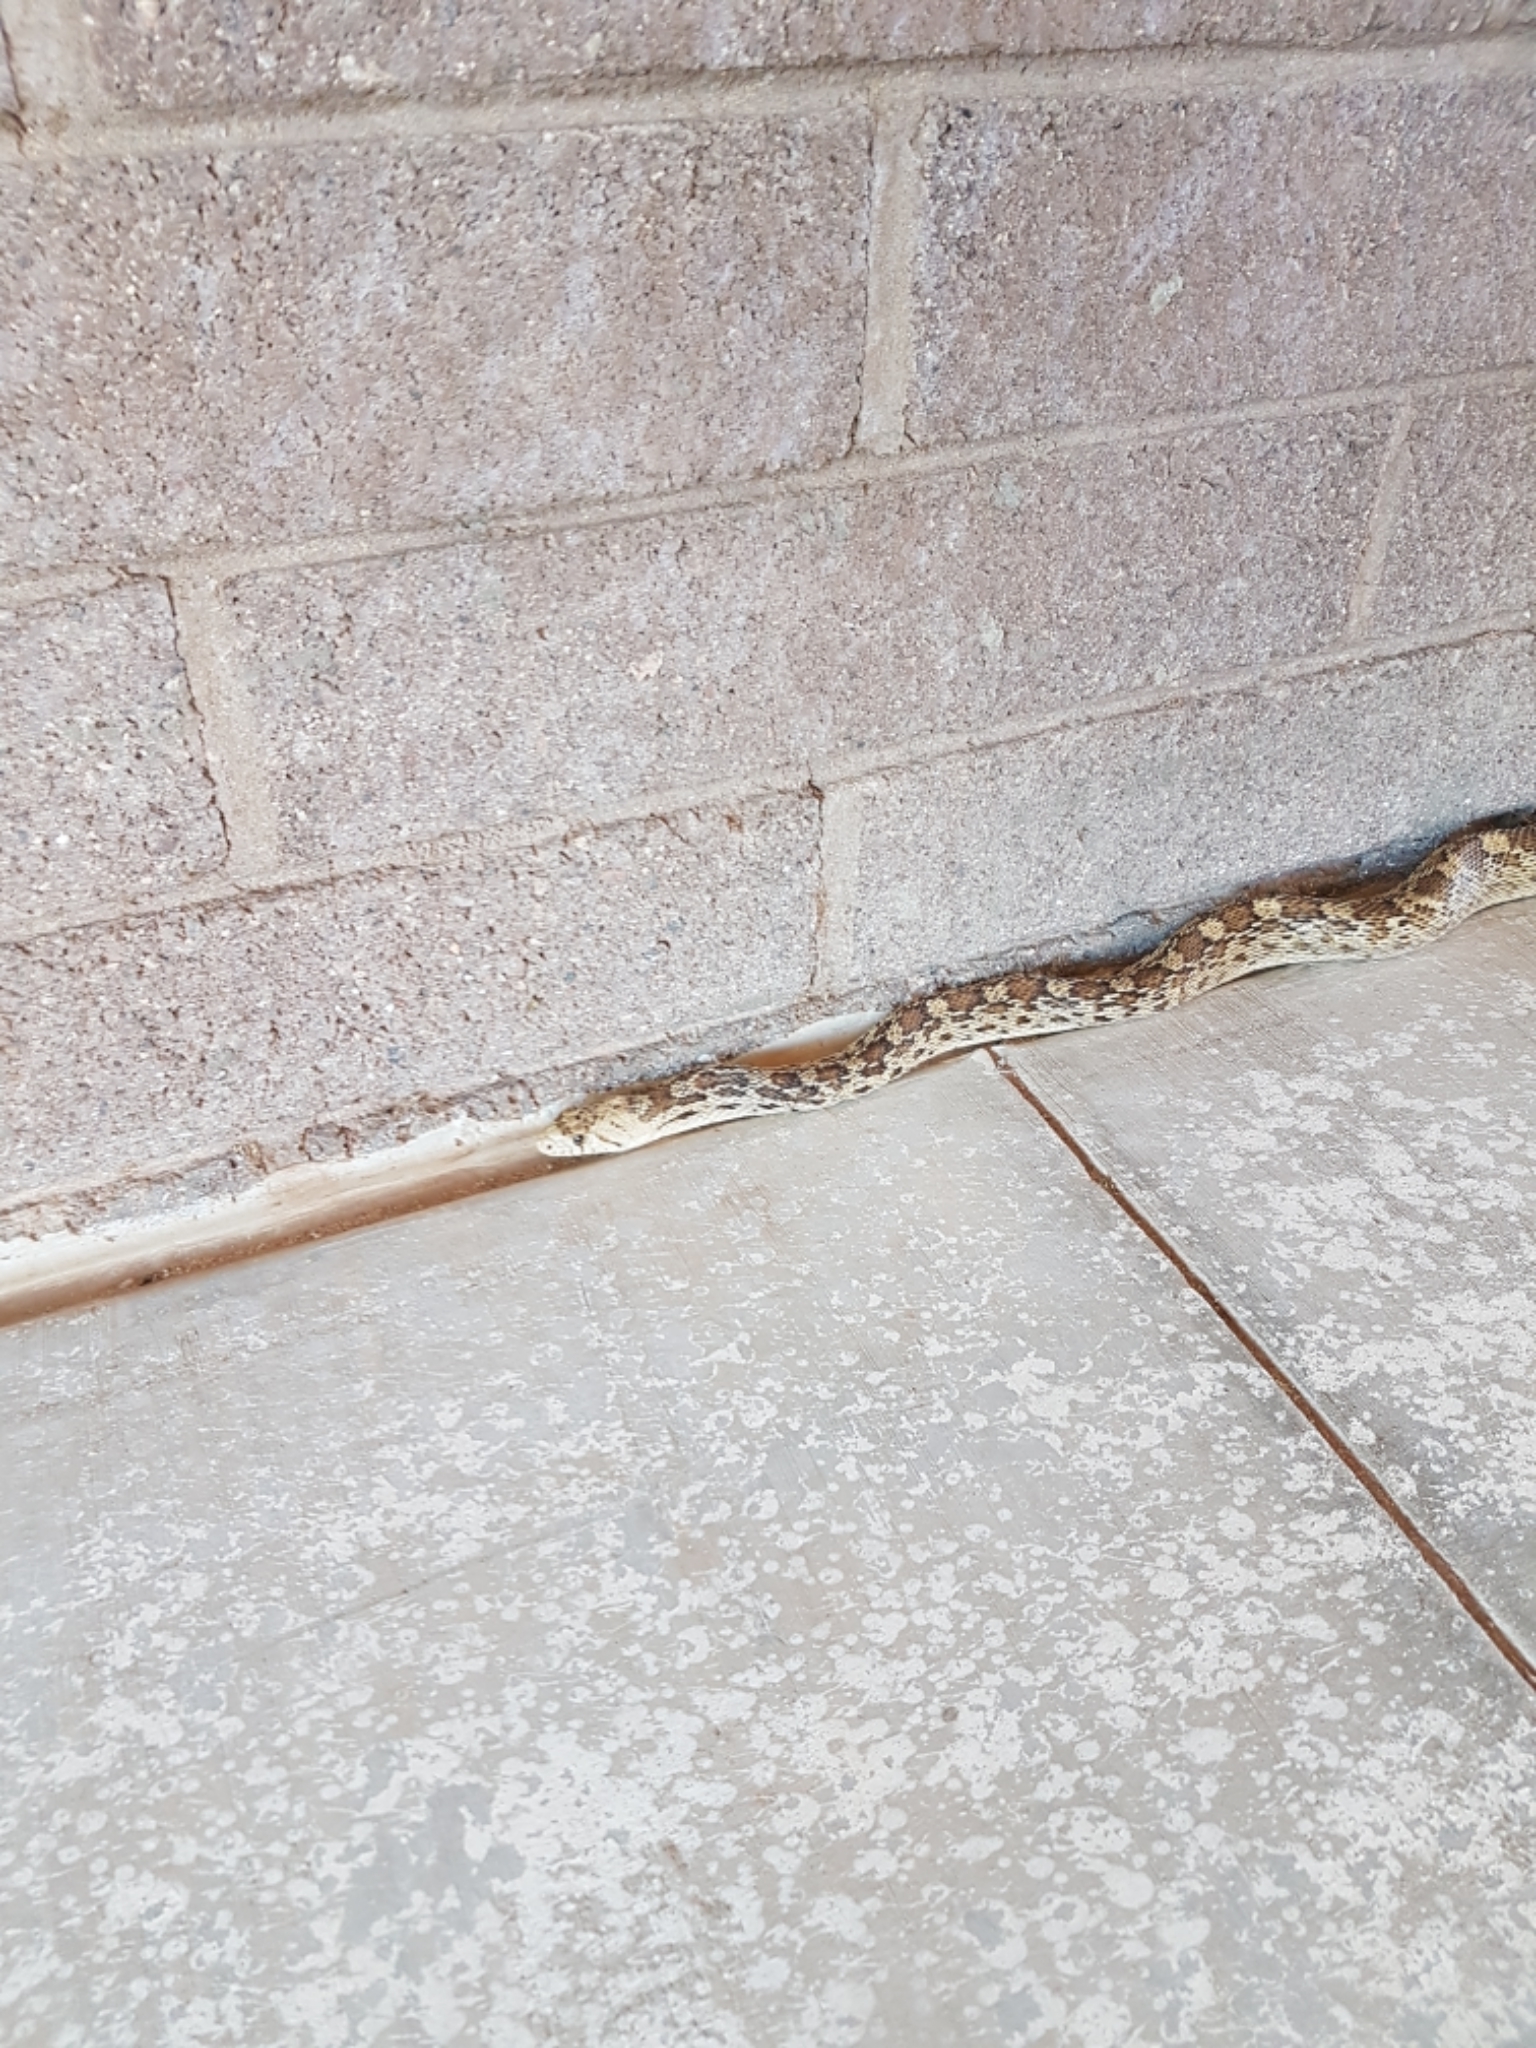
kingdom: Animalia
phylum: Chordata
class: Squamata
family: Colubridae
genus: Pituophis
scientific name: Pituophis catenifer
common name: Gopher snake
